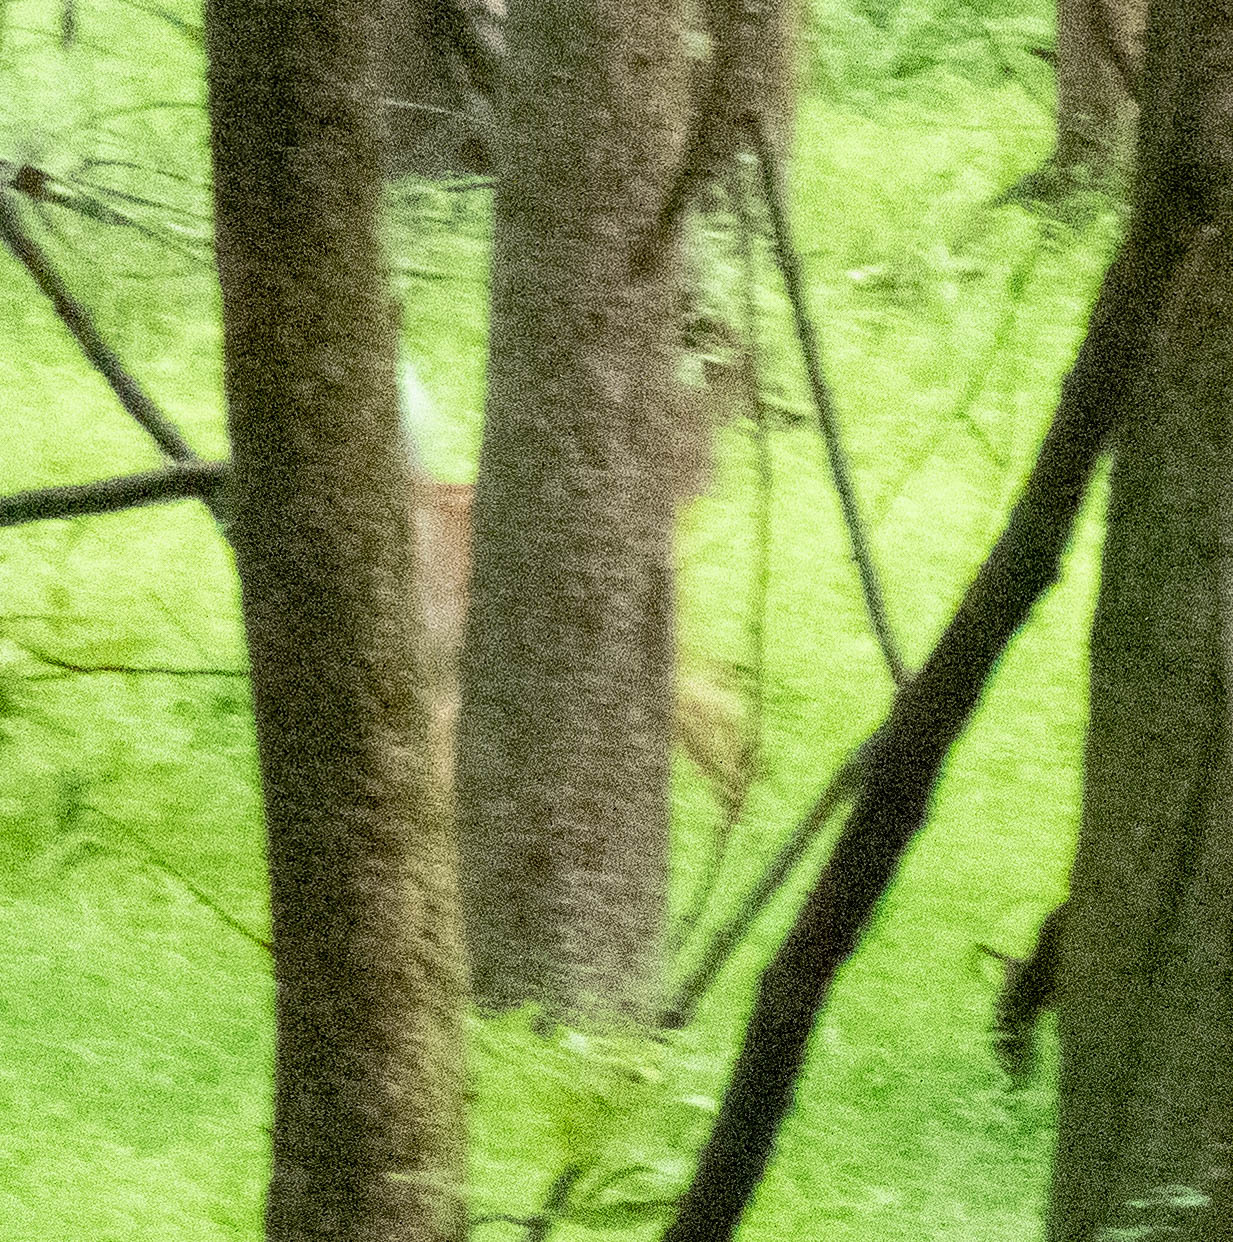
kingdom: Animalia
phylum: Chordata
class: Mammalia
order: Artiodactyla
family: Cervidae
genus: Odocoileus
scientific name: Odocoileus virginianus
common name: White-tailed deer
